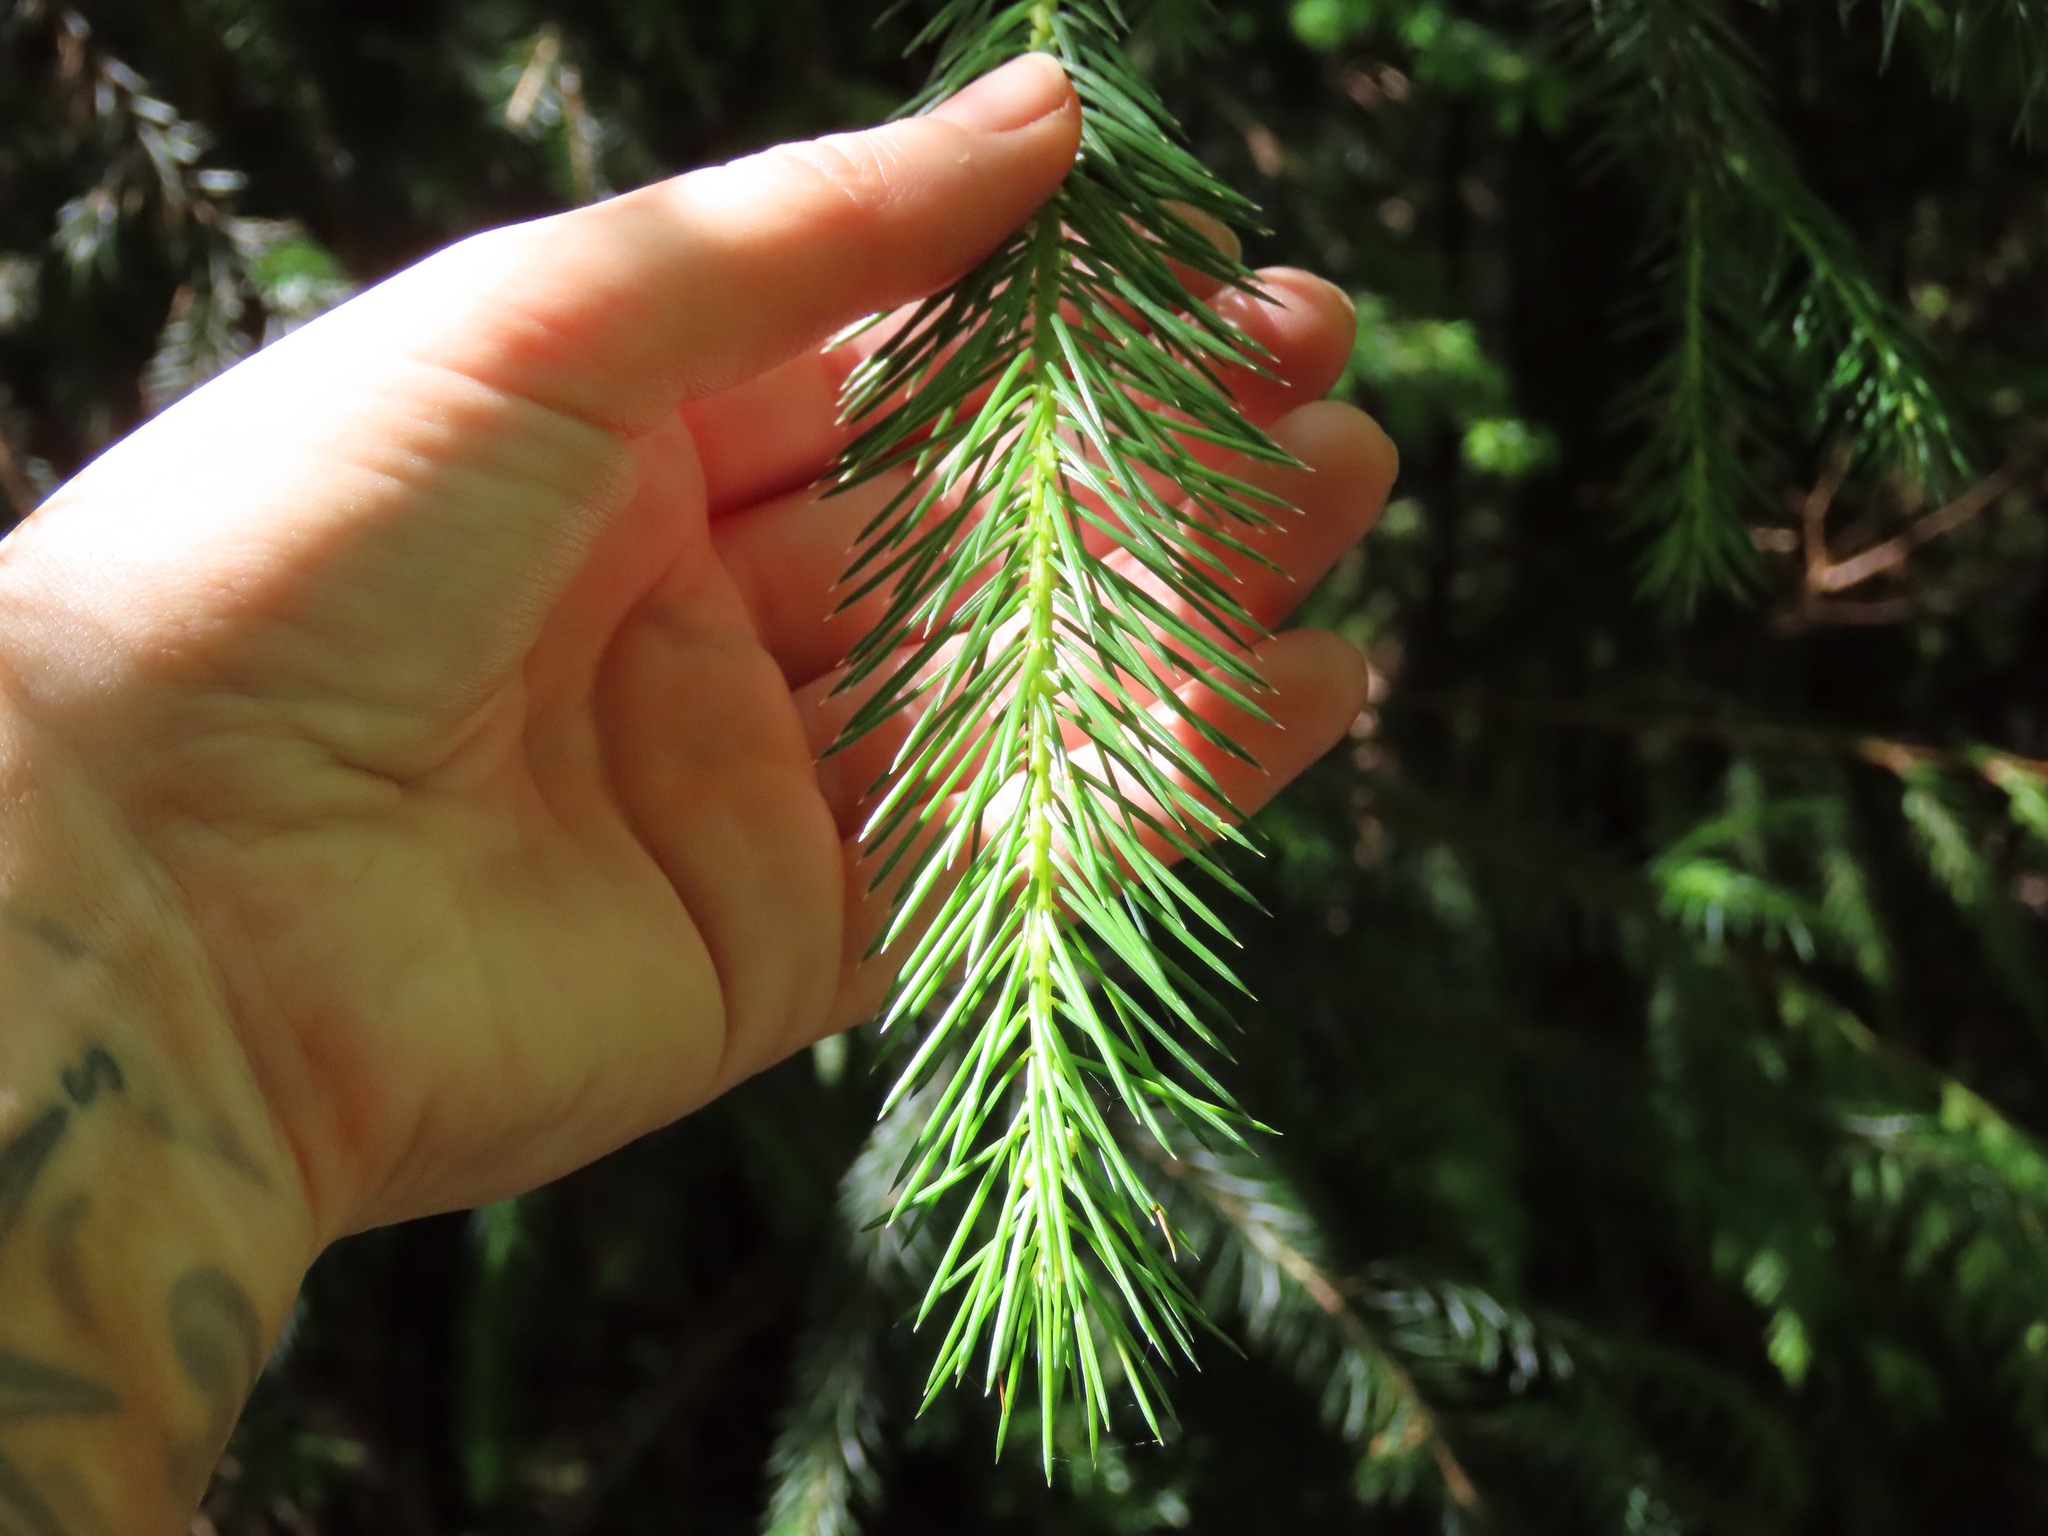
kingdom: Plantae
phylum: Tracheophyta
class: Pinopsida
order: Pinales
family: Pinaceae
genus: Picea
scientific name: Picea sitchensis
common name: Sitka spruce
